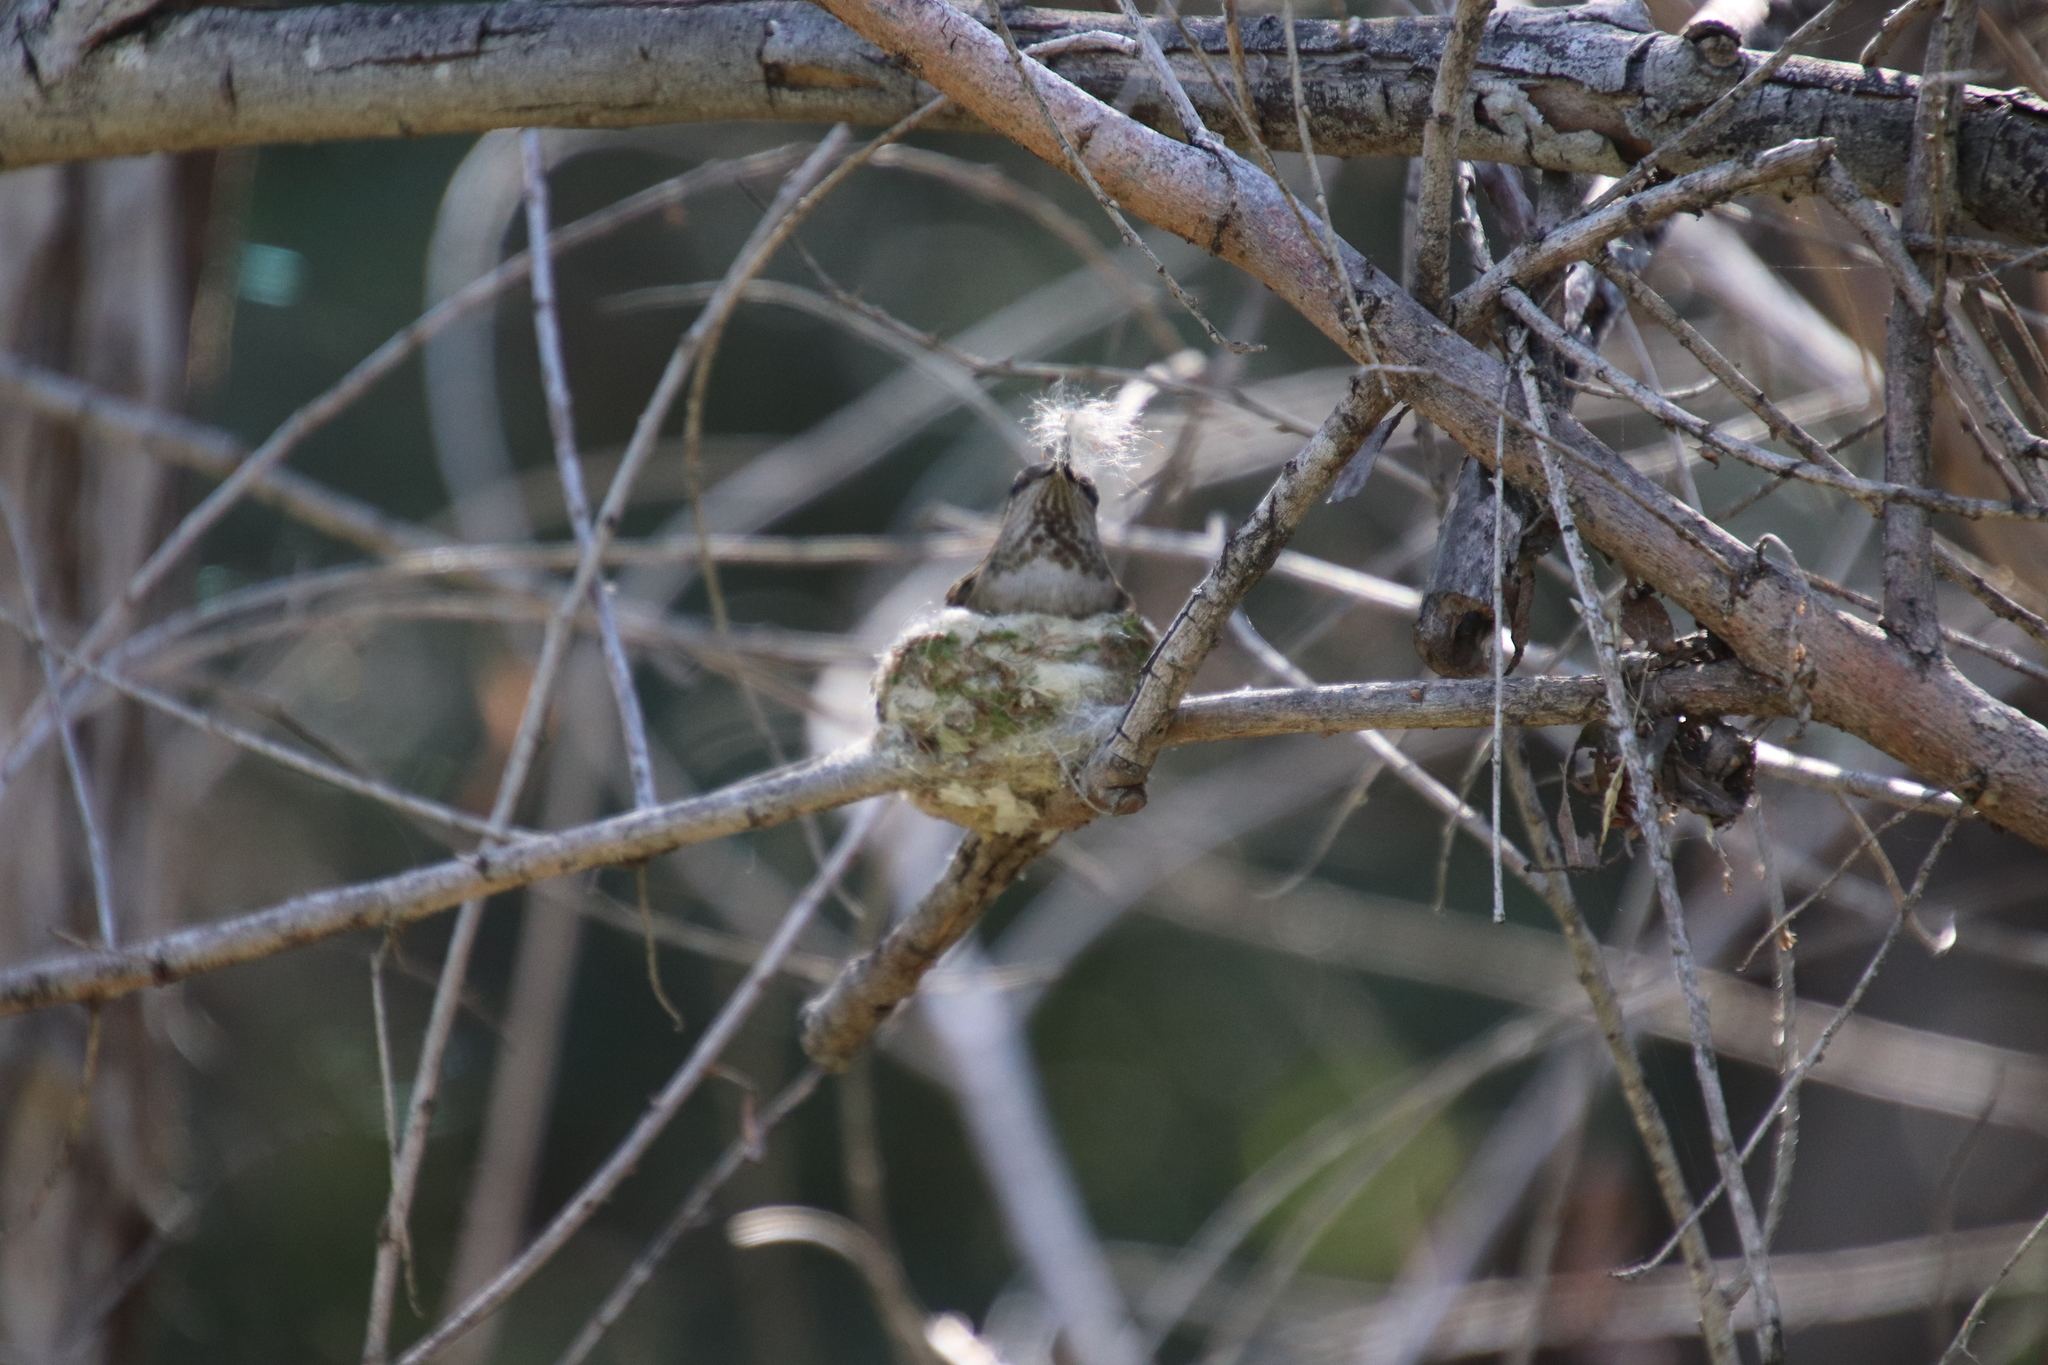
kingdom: Animalia
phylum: Chordata
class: Aves
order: Apodiformes
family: Trochilidae
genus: Calypte
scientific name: Calypte anna
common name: Anna's hummingbird
